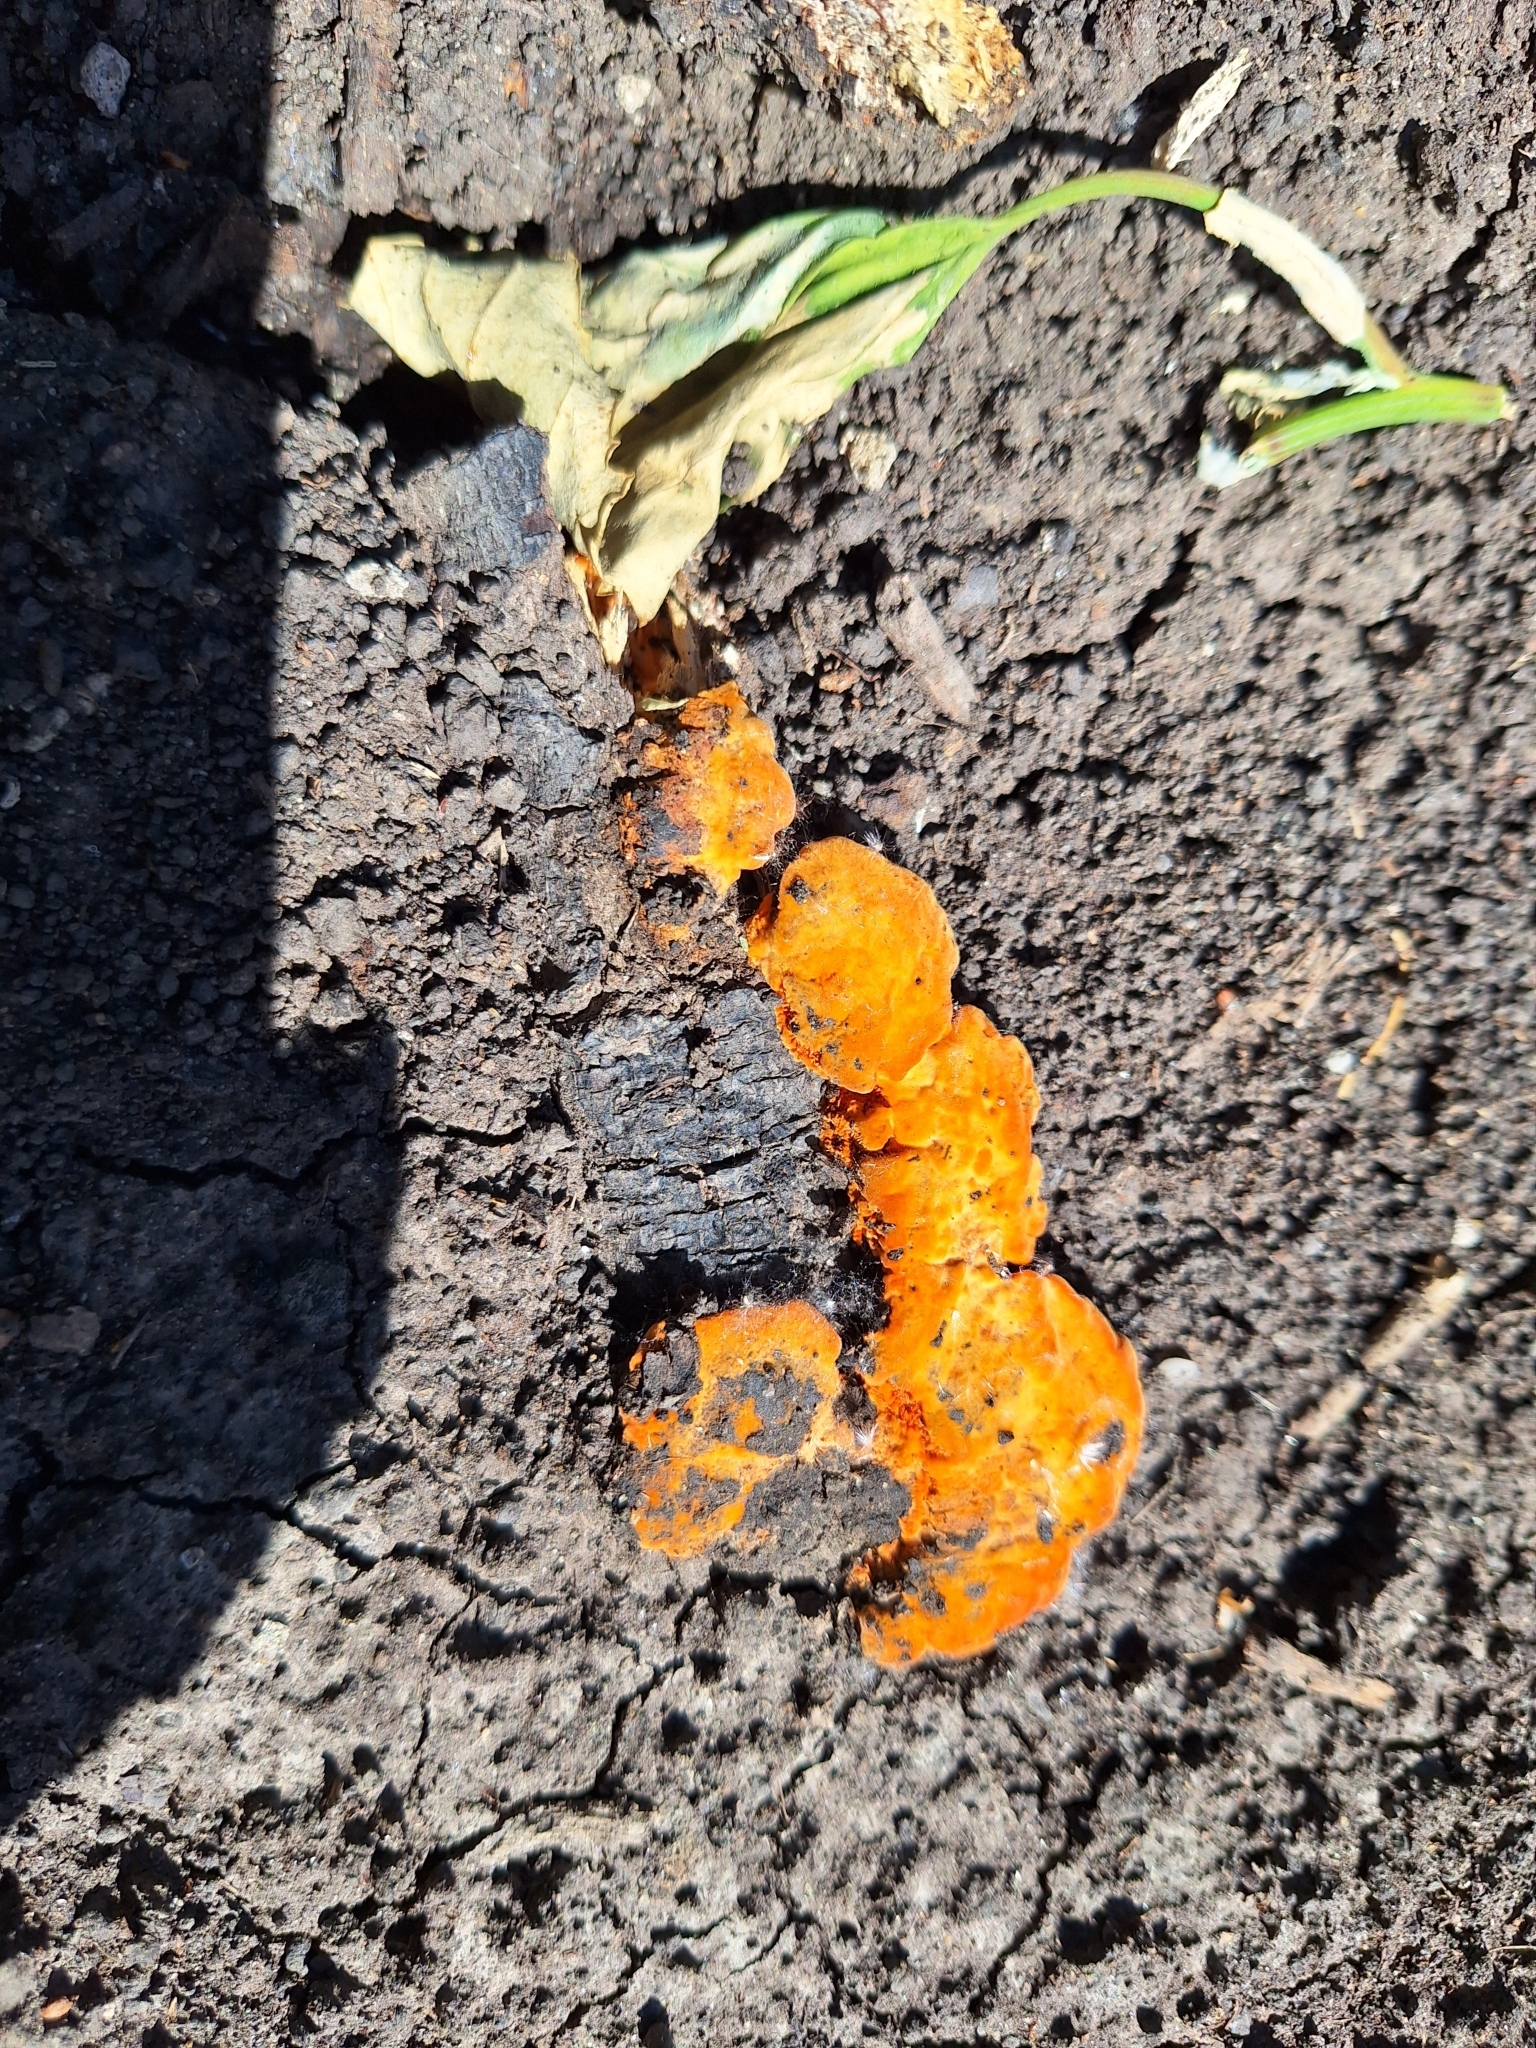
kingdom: Fungi
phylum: Basidiomycota
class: Agaricomycetes
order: Polyporales
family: Polyporaceae
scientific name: Polyporaceae
